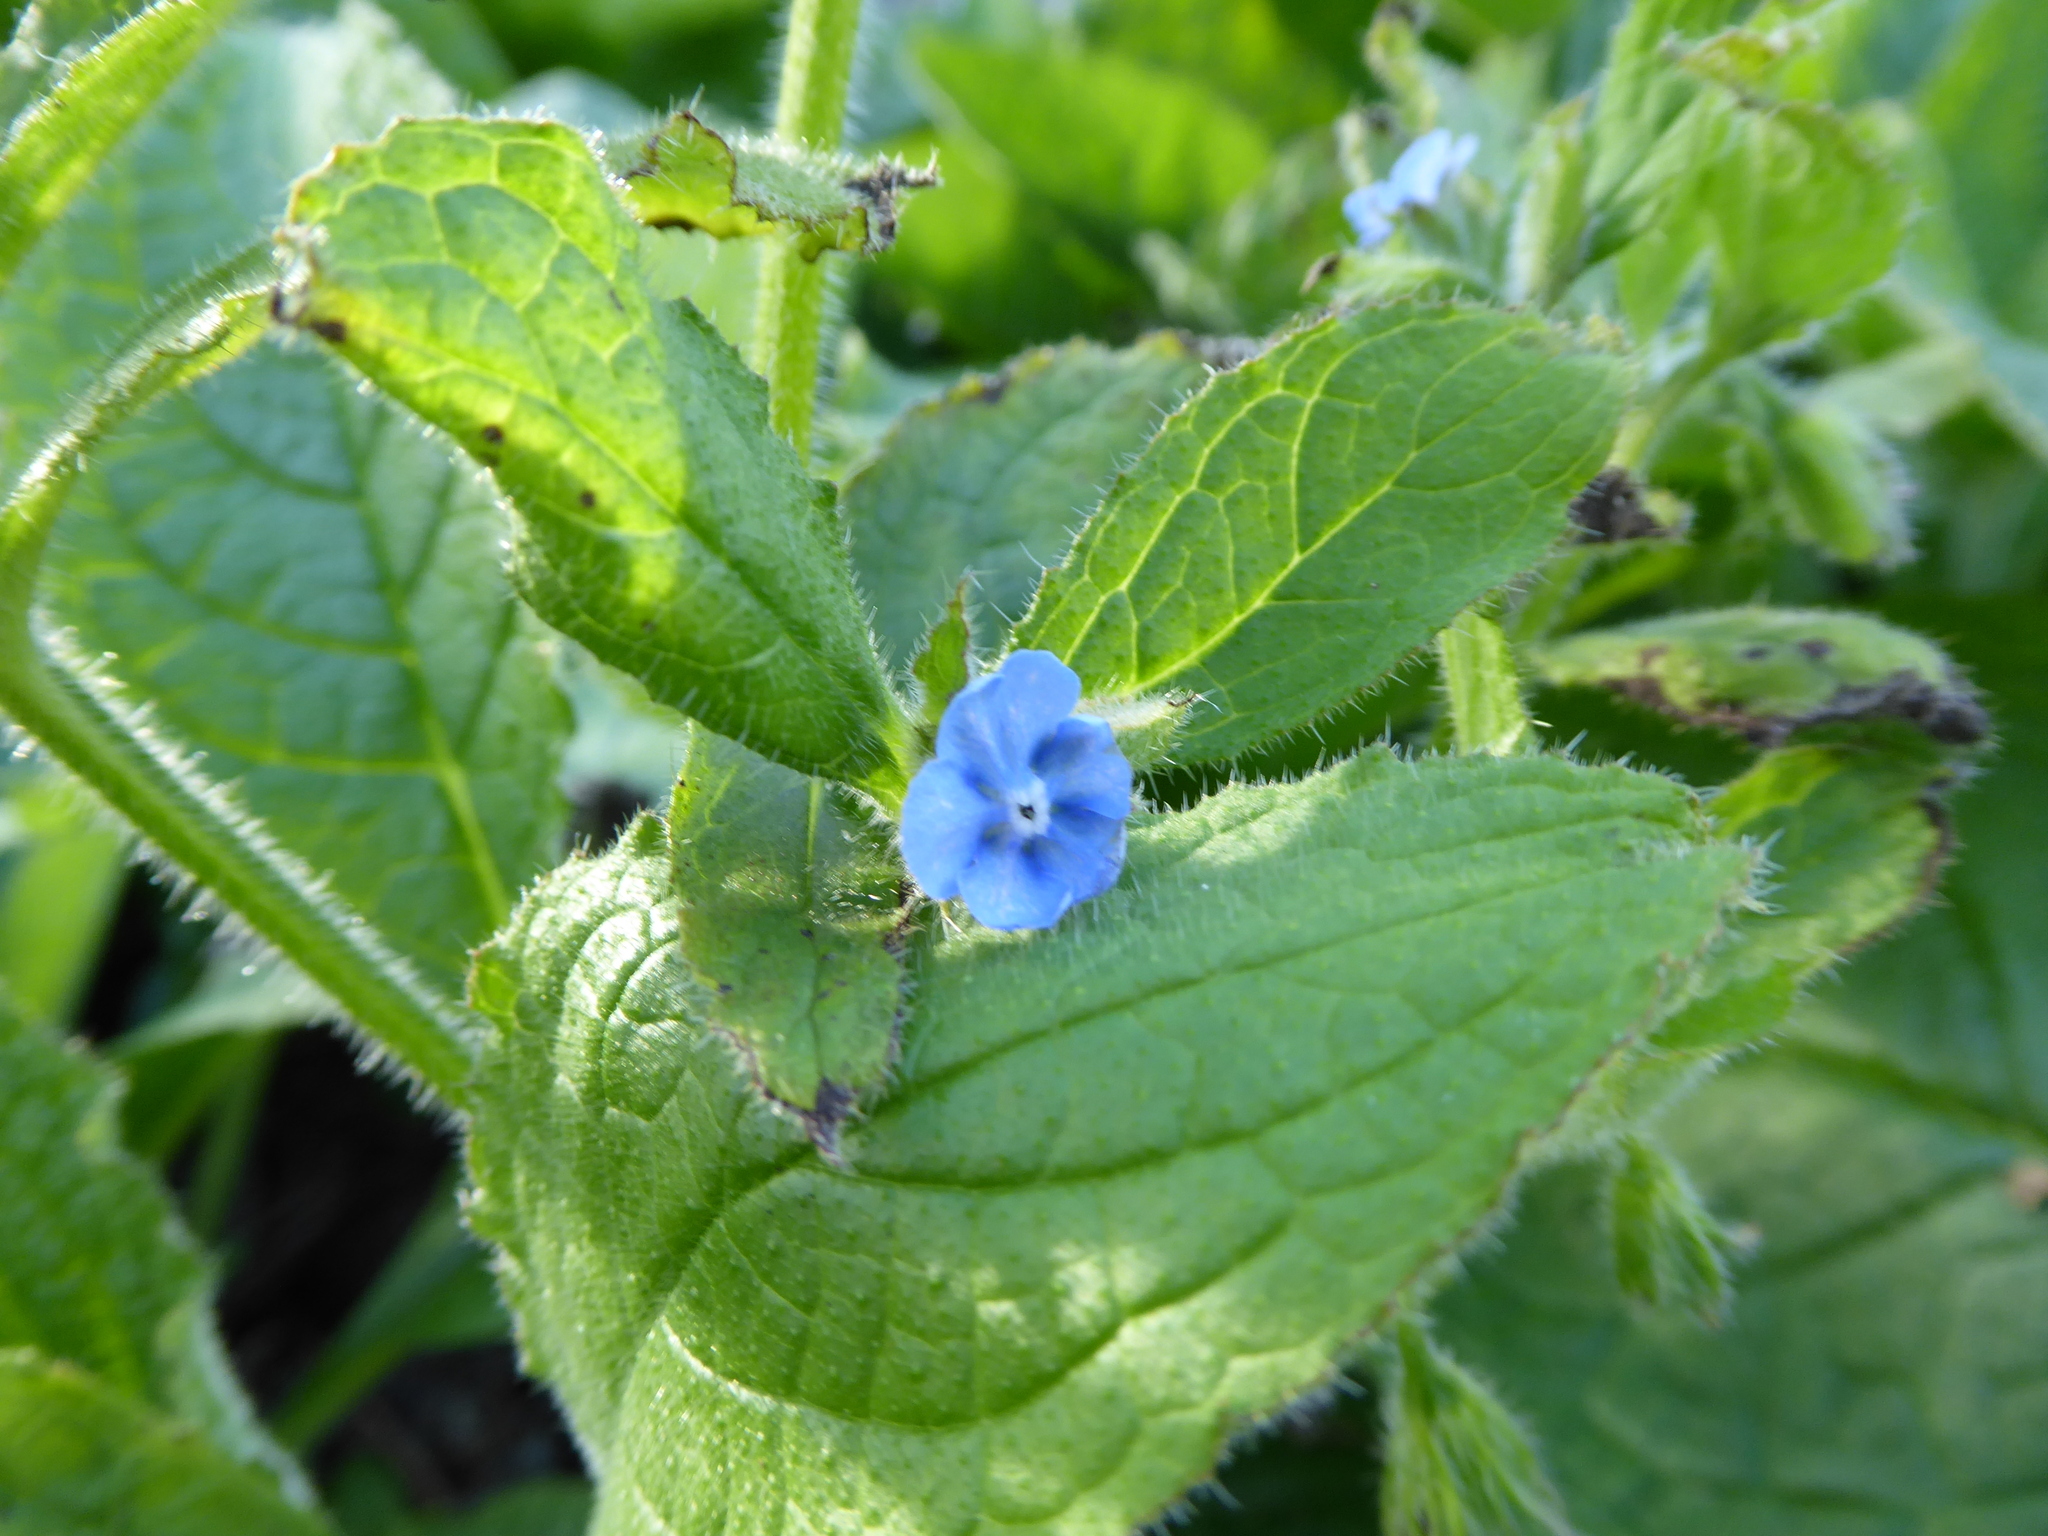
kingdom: Plantae
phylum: Tracheophyta
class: Magnoliopsida
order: Boraginales
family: Boraginaceae
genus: Pentaglottis
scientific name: Pentaglottis sempervirens
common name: Green alkanet
